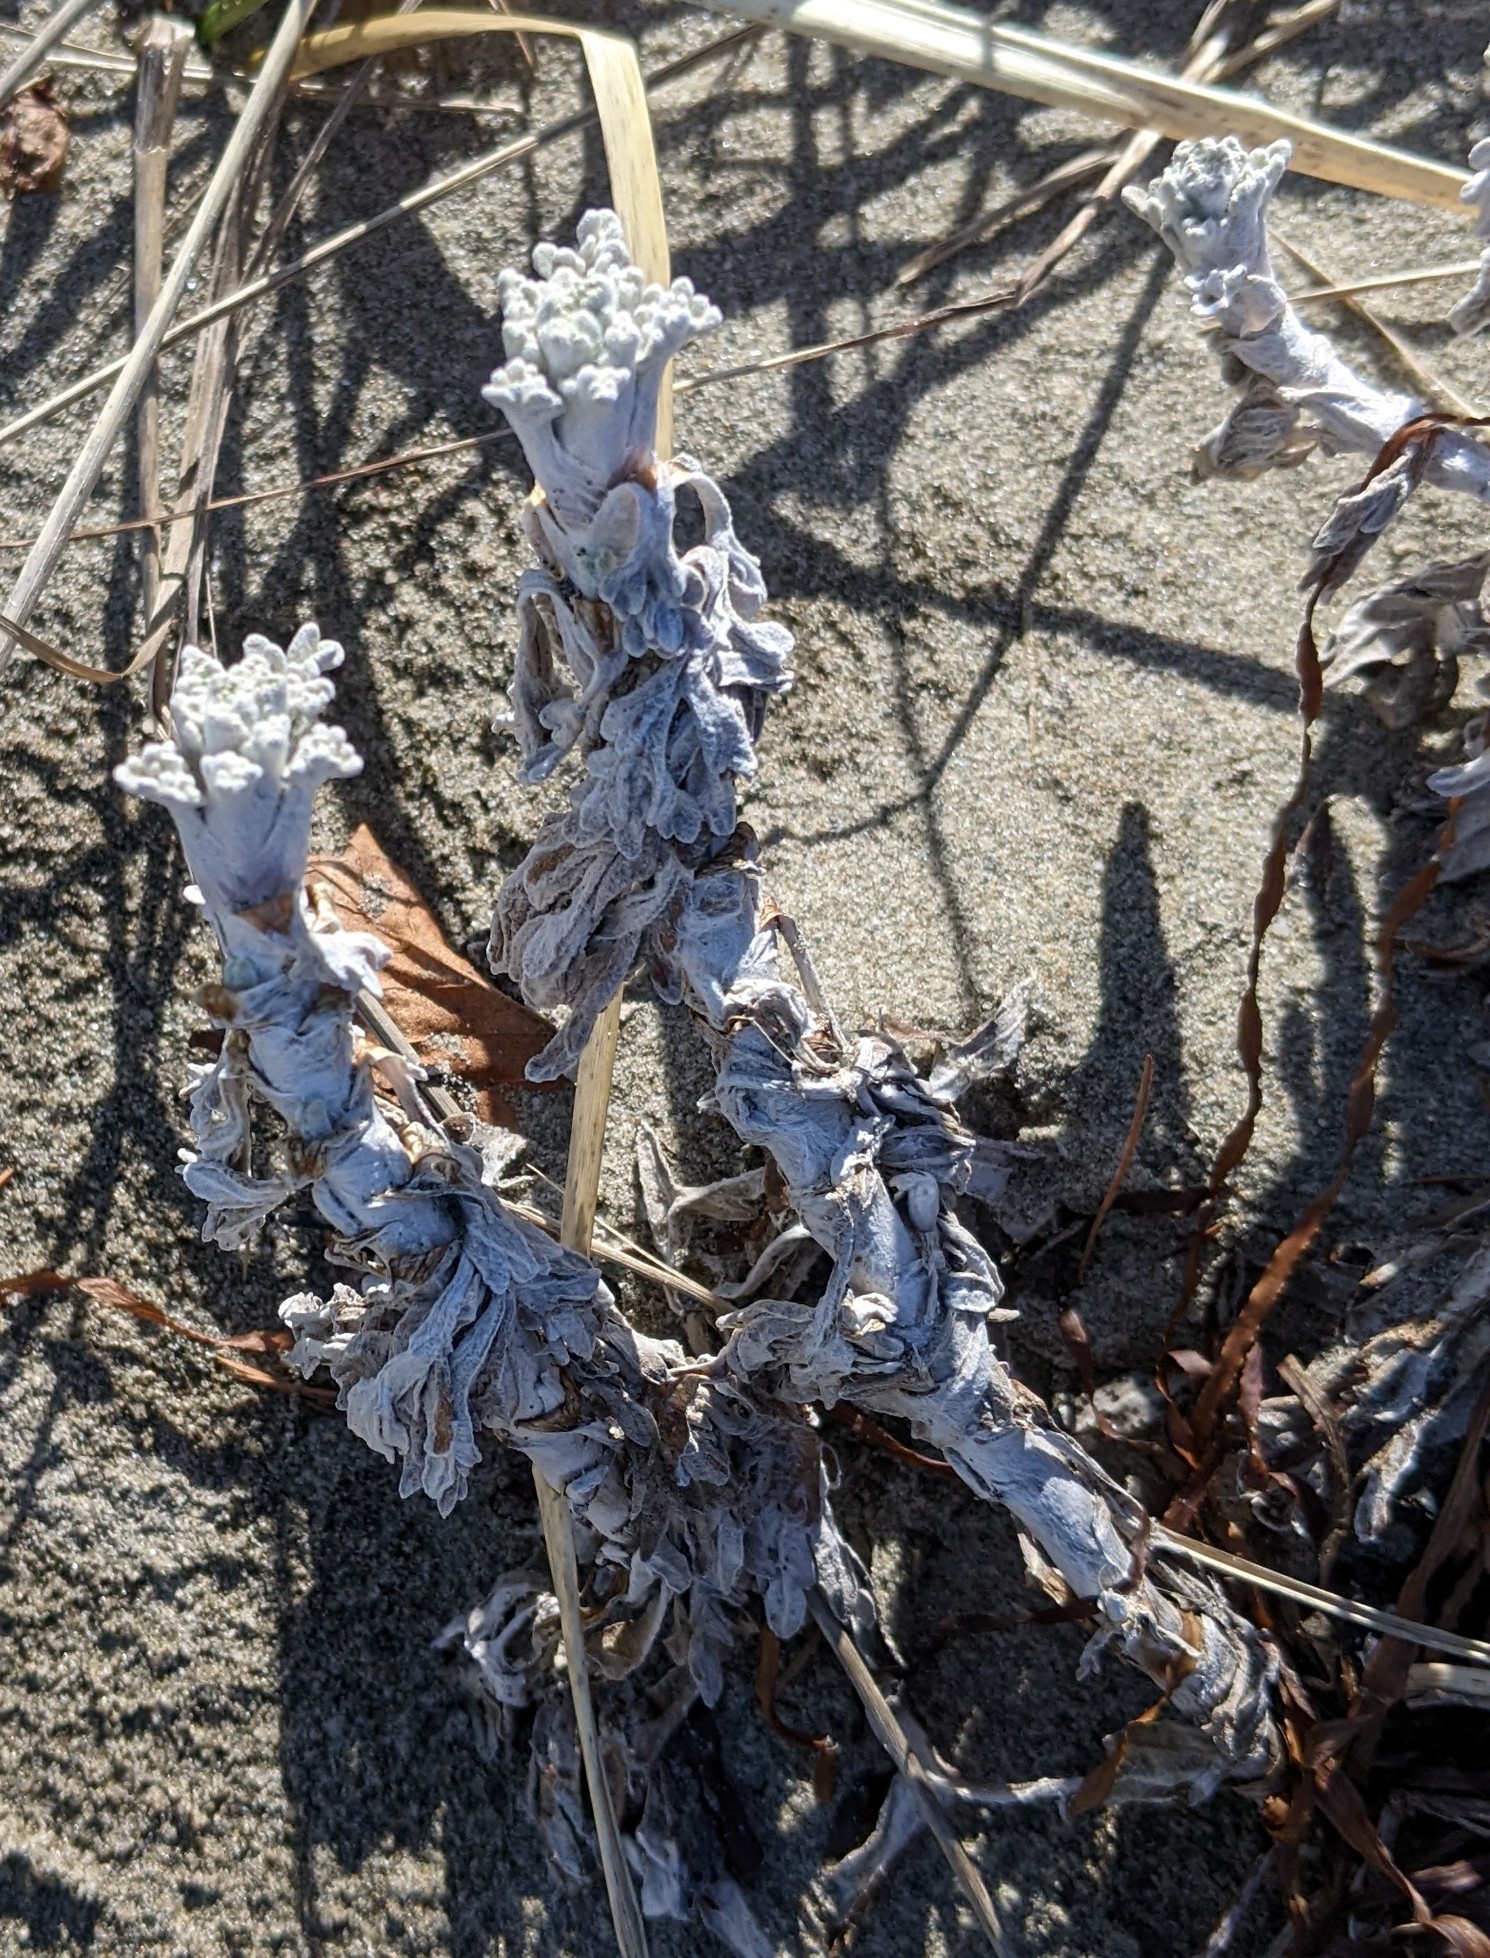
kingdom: Plantae
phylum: Tracheophyta
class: Magnoliopsida
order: Asterales
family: Asteraceae
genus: Artemisia
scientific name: Artemisia stelleriana
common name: Beach wormwood
